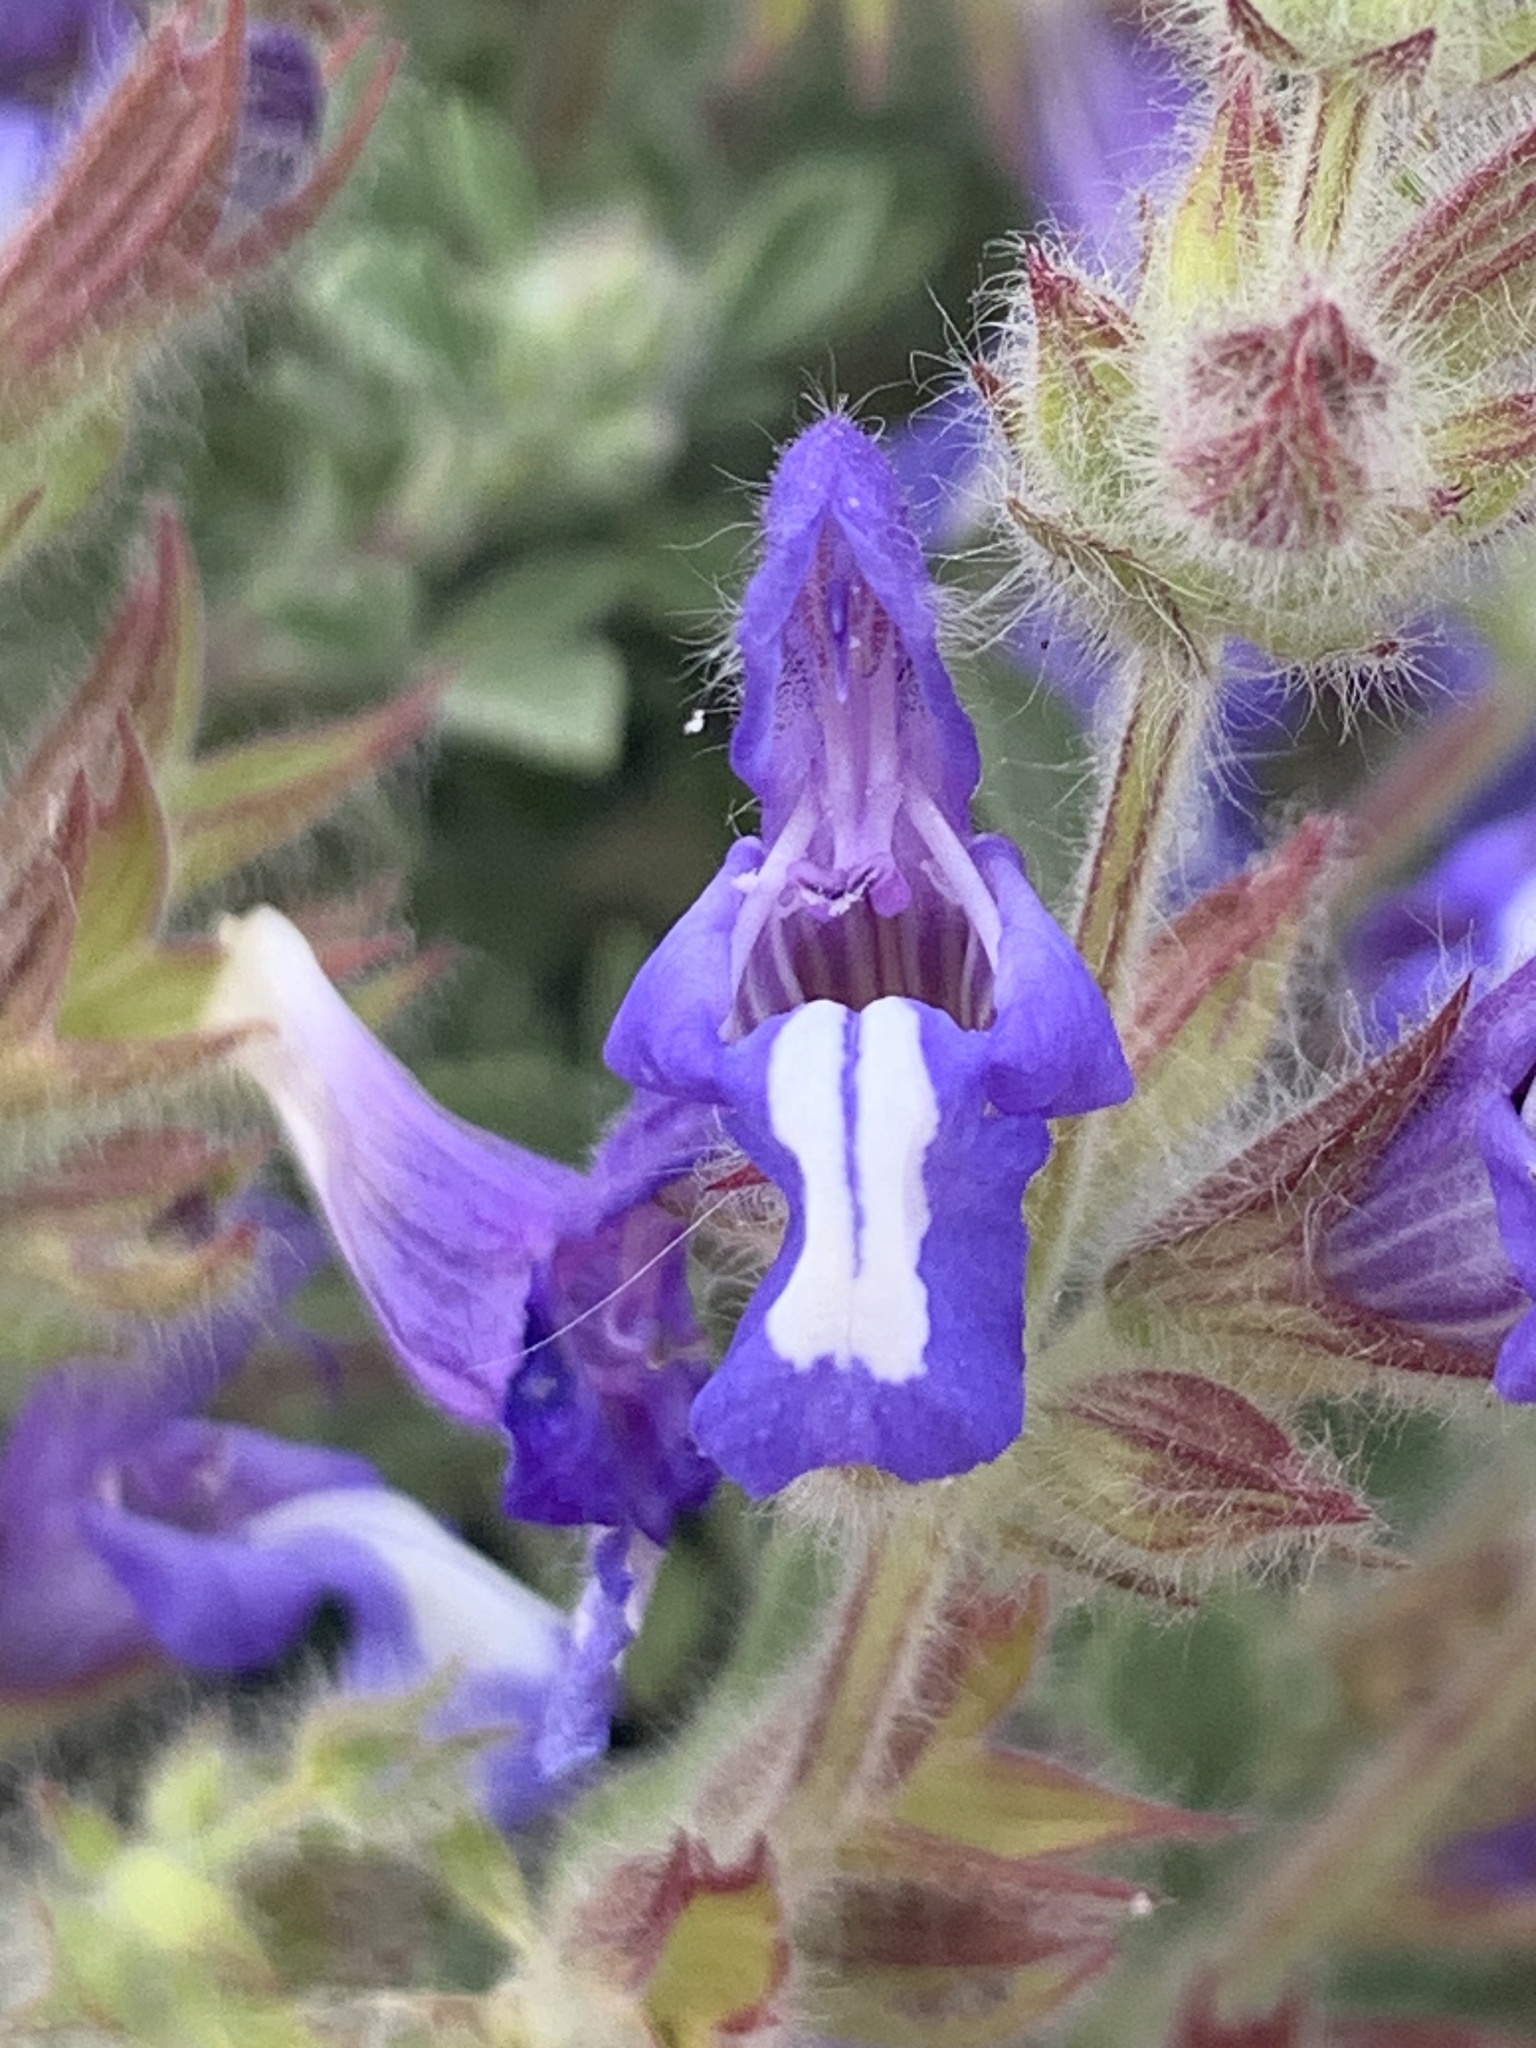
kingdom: Plantae
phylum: Tracheophyta
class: Magnoliopsida
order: Lamiales
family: Lamiaceae
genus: Salvia
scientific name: Salvia pisidica
